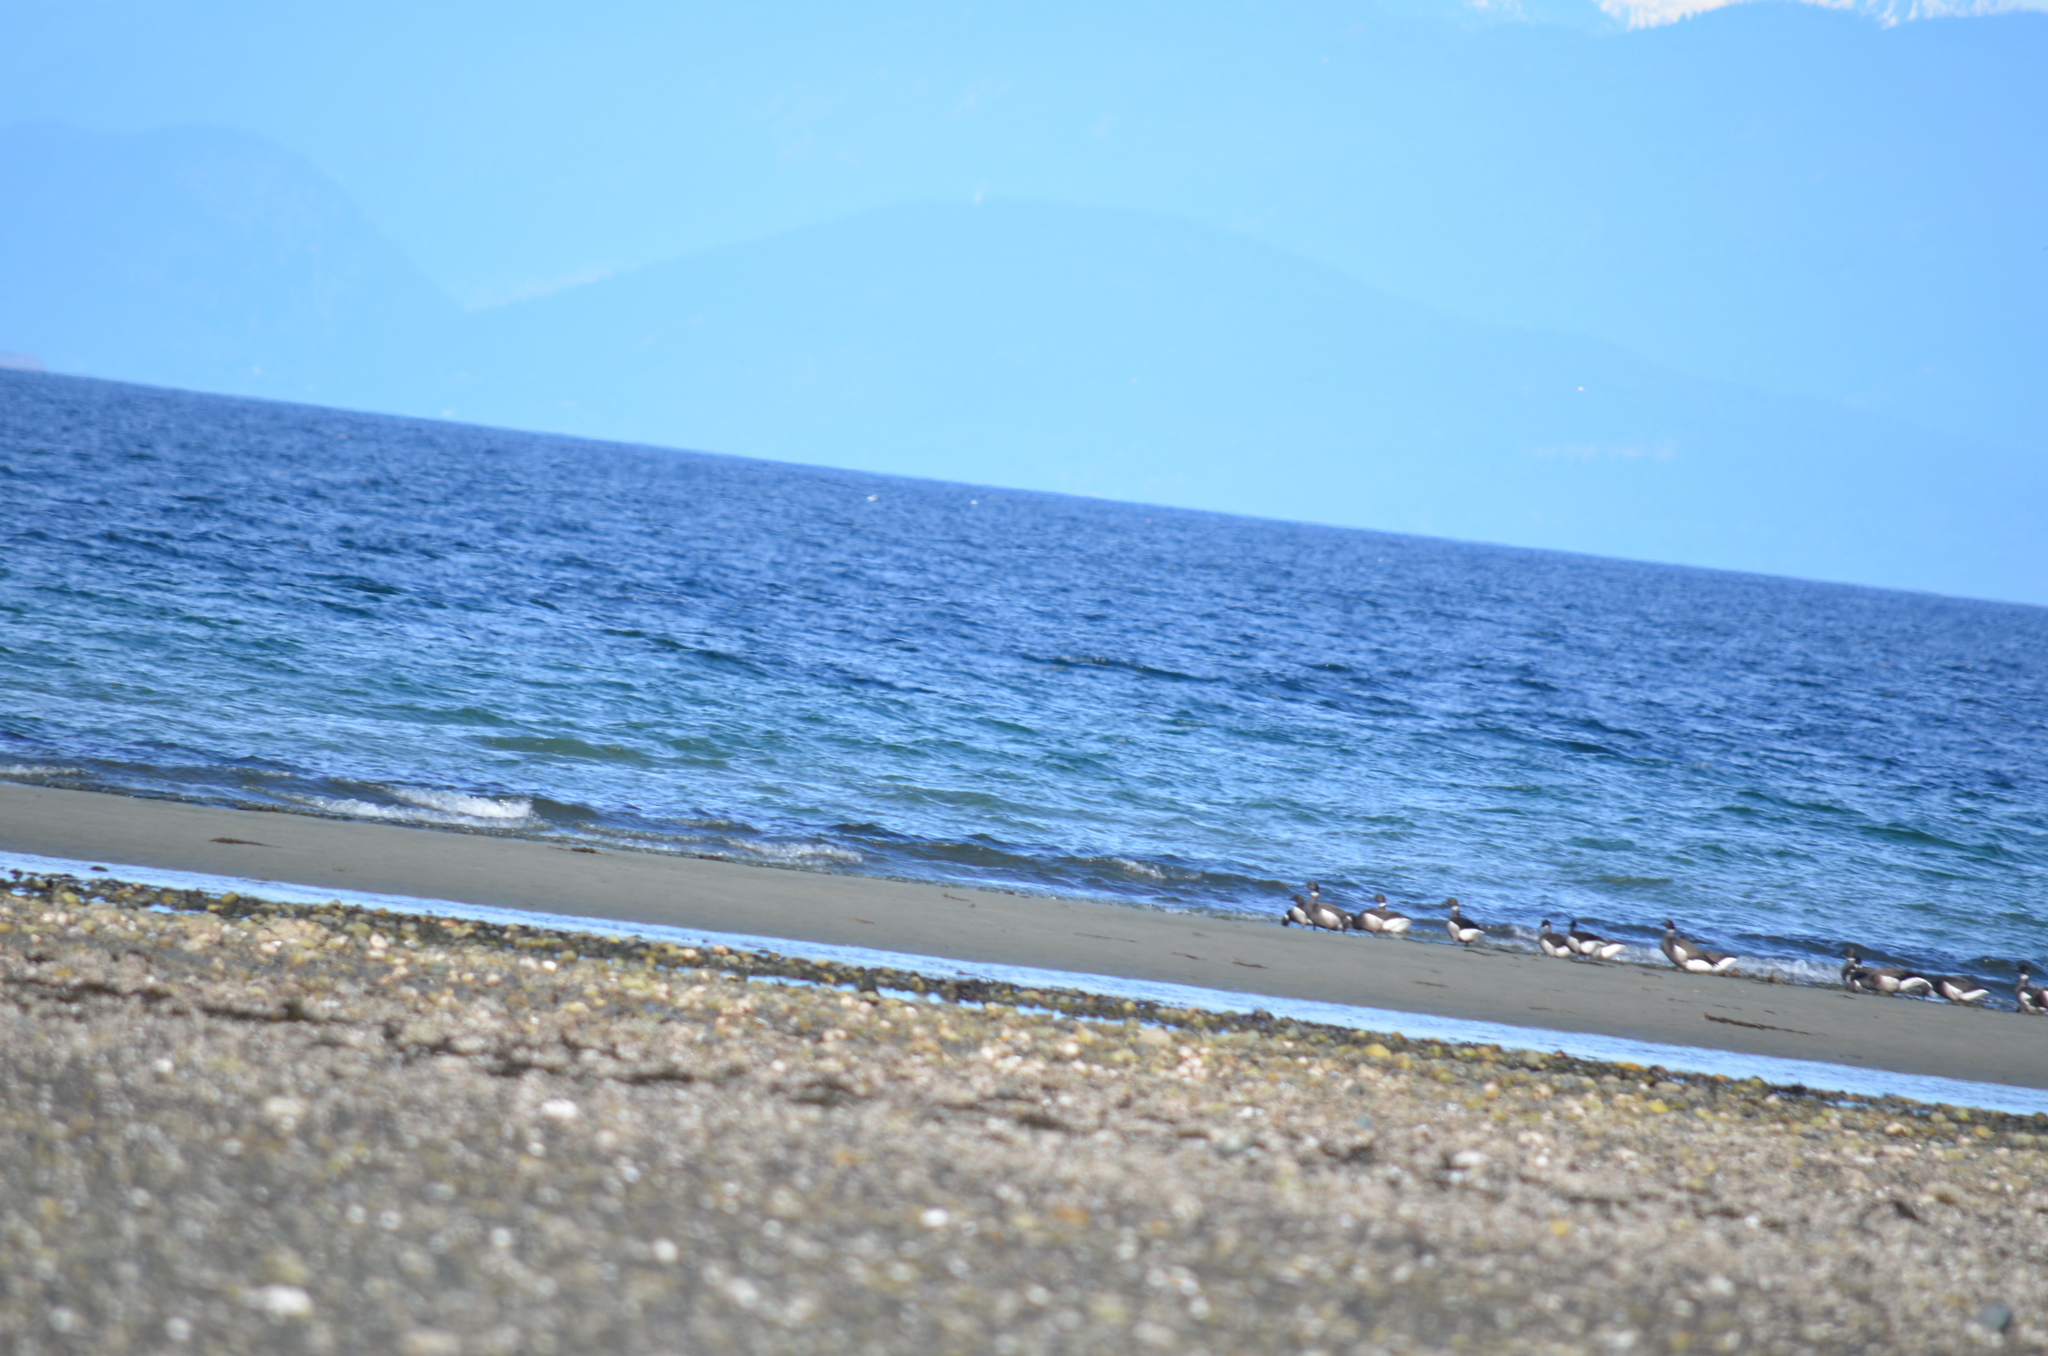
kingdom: Animalia
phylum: Chordata
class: Aves
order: Anseriformes
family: Anatidae
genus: Branta
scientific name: Branta bernicla
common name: Brant goose
